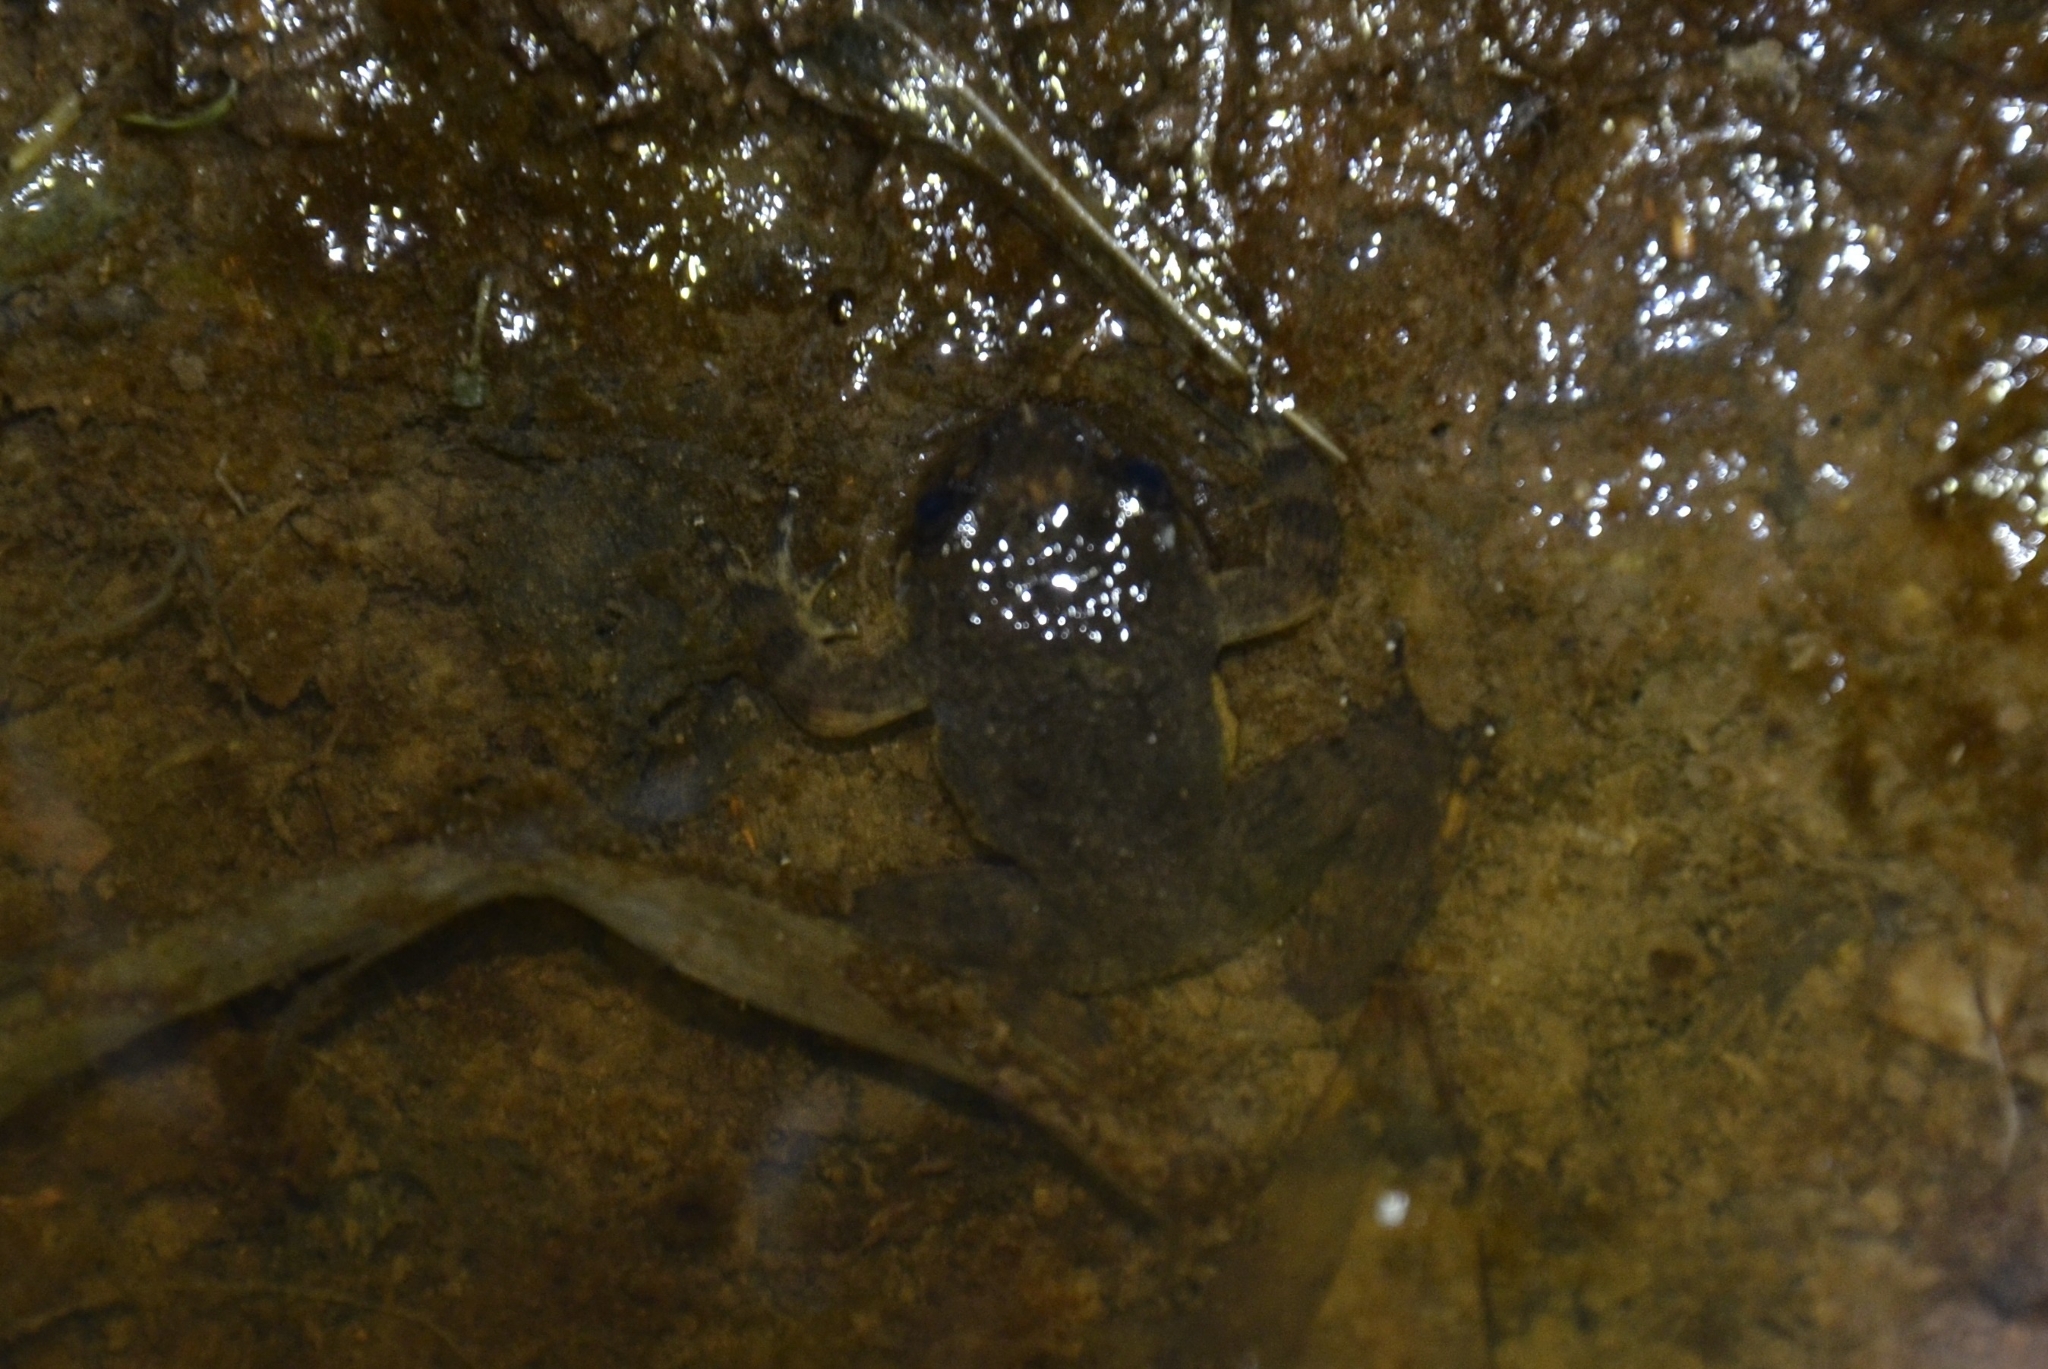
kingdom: Animalia
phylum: Chordata
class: Amphibia
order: Anura
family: Nyctibatrachidae
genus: Nyctibatrachus
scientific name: Nyctibatrachus petraeus
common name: Castle rock night frog
